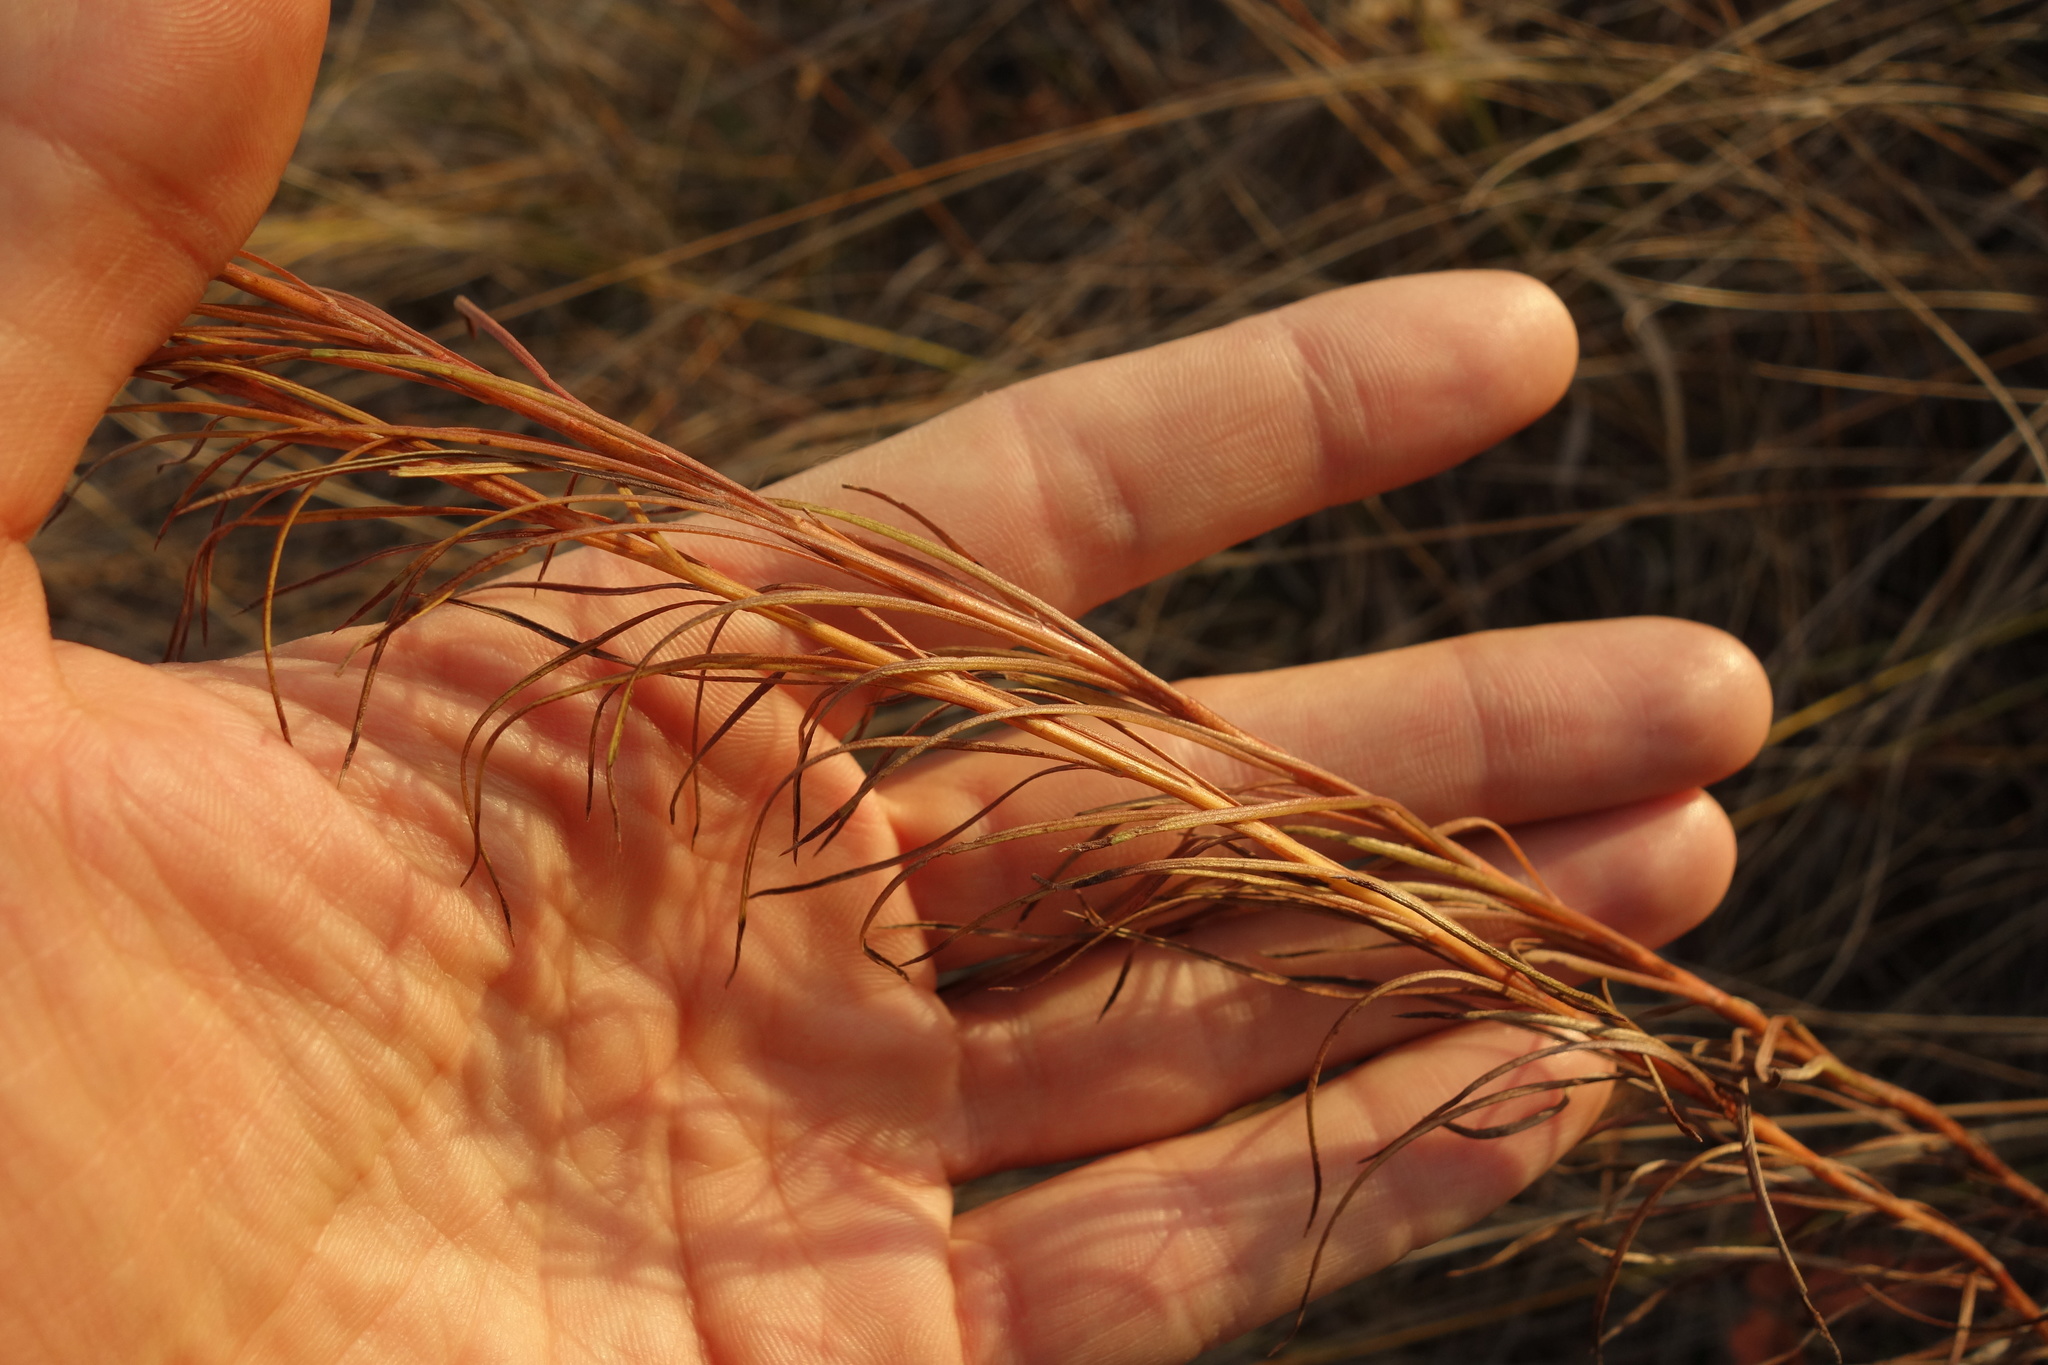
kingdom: Plantae
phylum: Tracheophyta
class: Magnoliopsida
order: Asterales
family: Asteraceae
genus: Galatella
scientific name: Galatella linosyris
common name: Goldilocks aster
